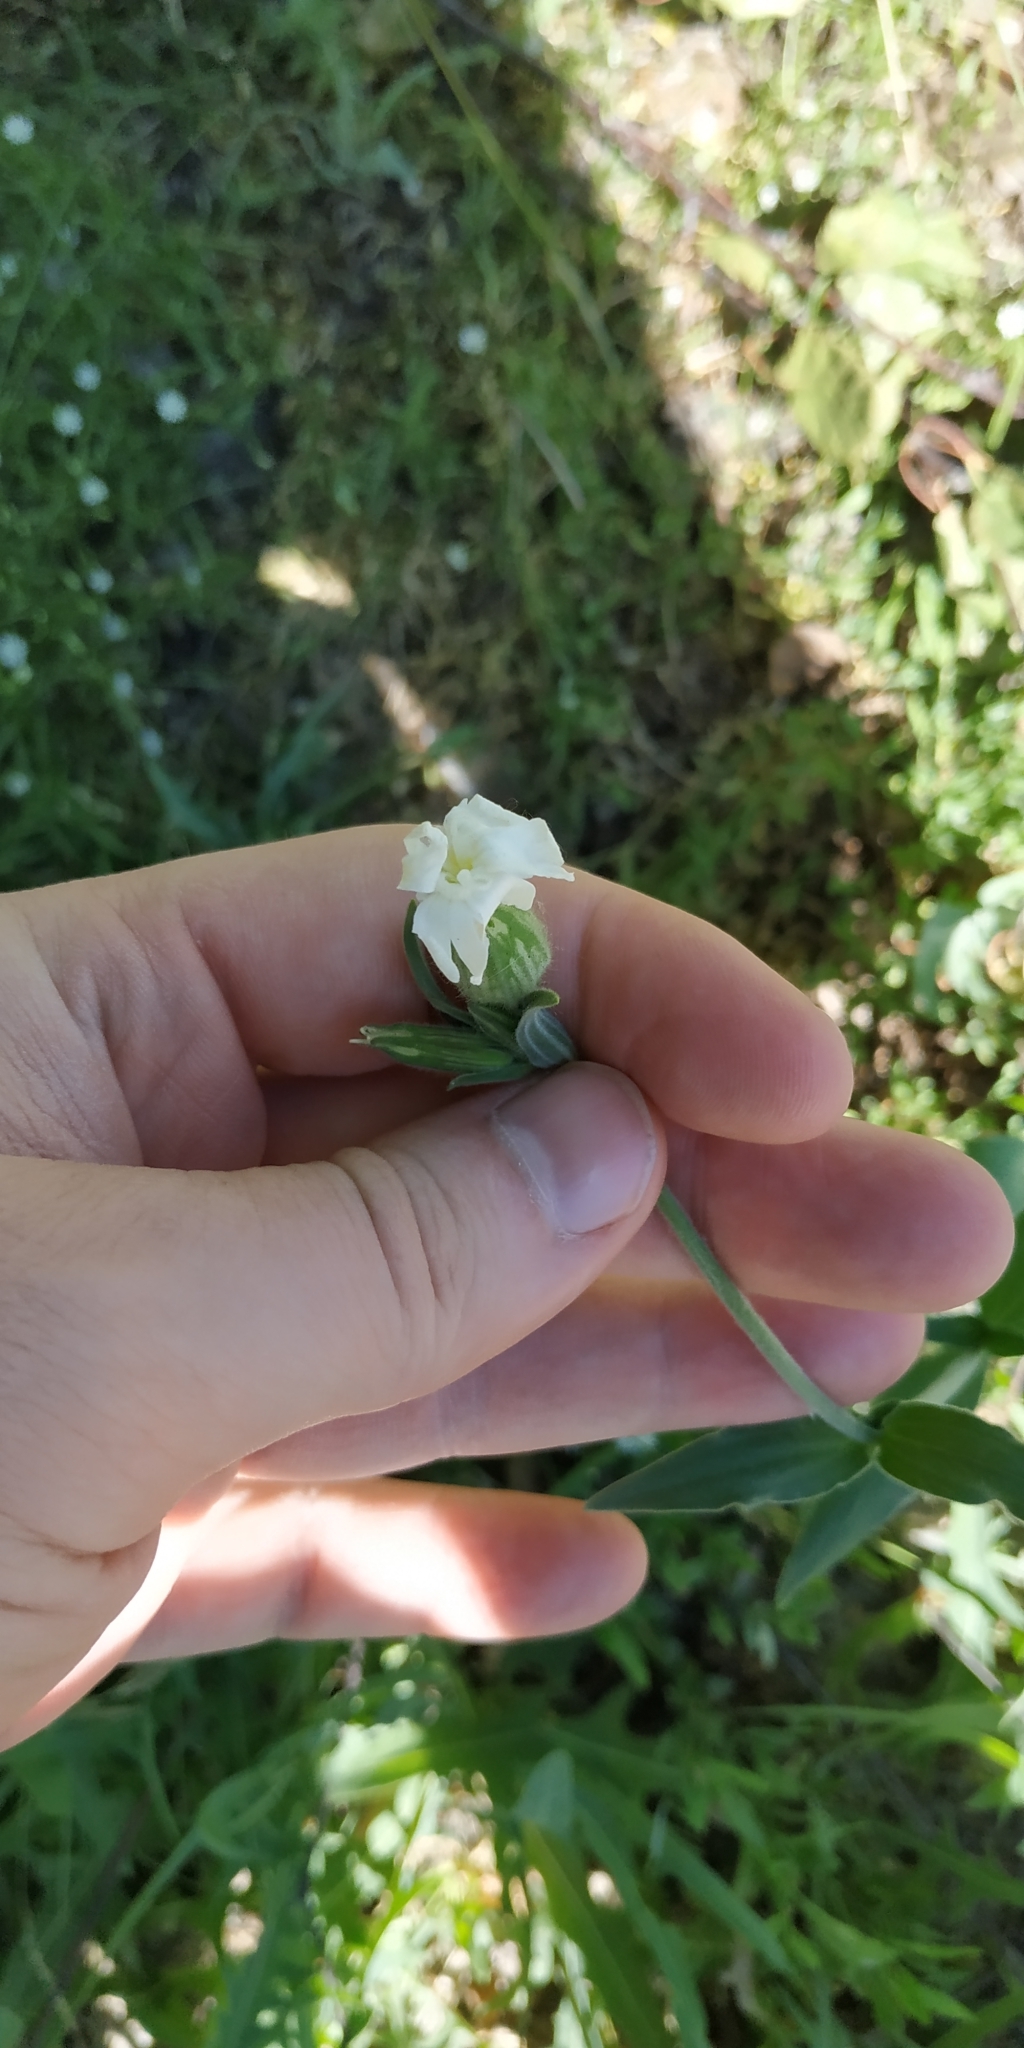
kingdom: Plantae
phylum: Tracheophyta
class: Magnoliopsida
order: Caryophyllales
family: Caryophyllaceae
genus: Silene
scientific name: Silene latifolia
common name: White campion
